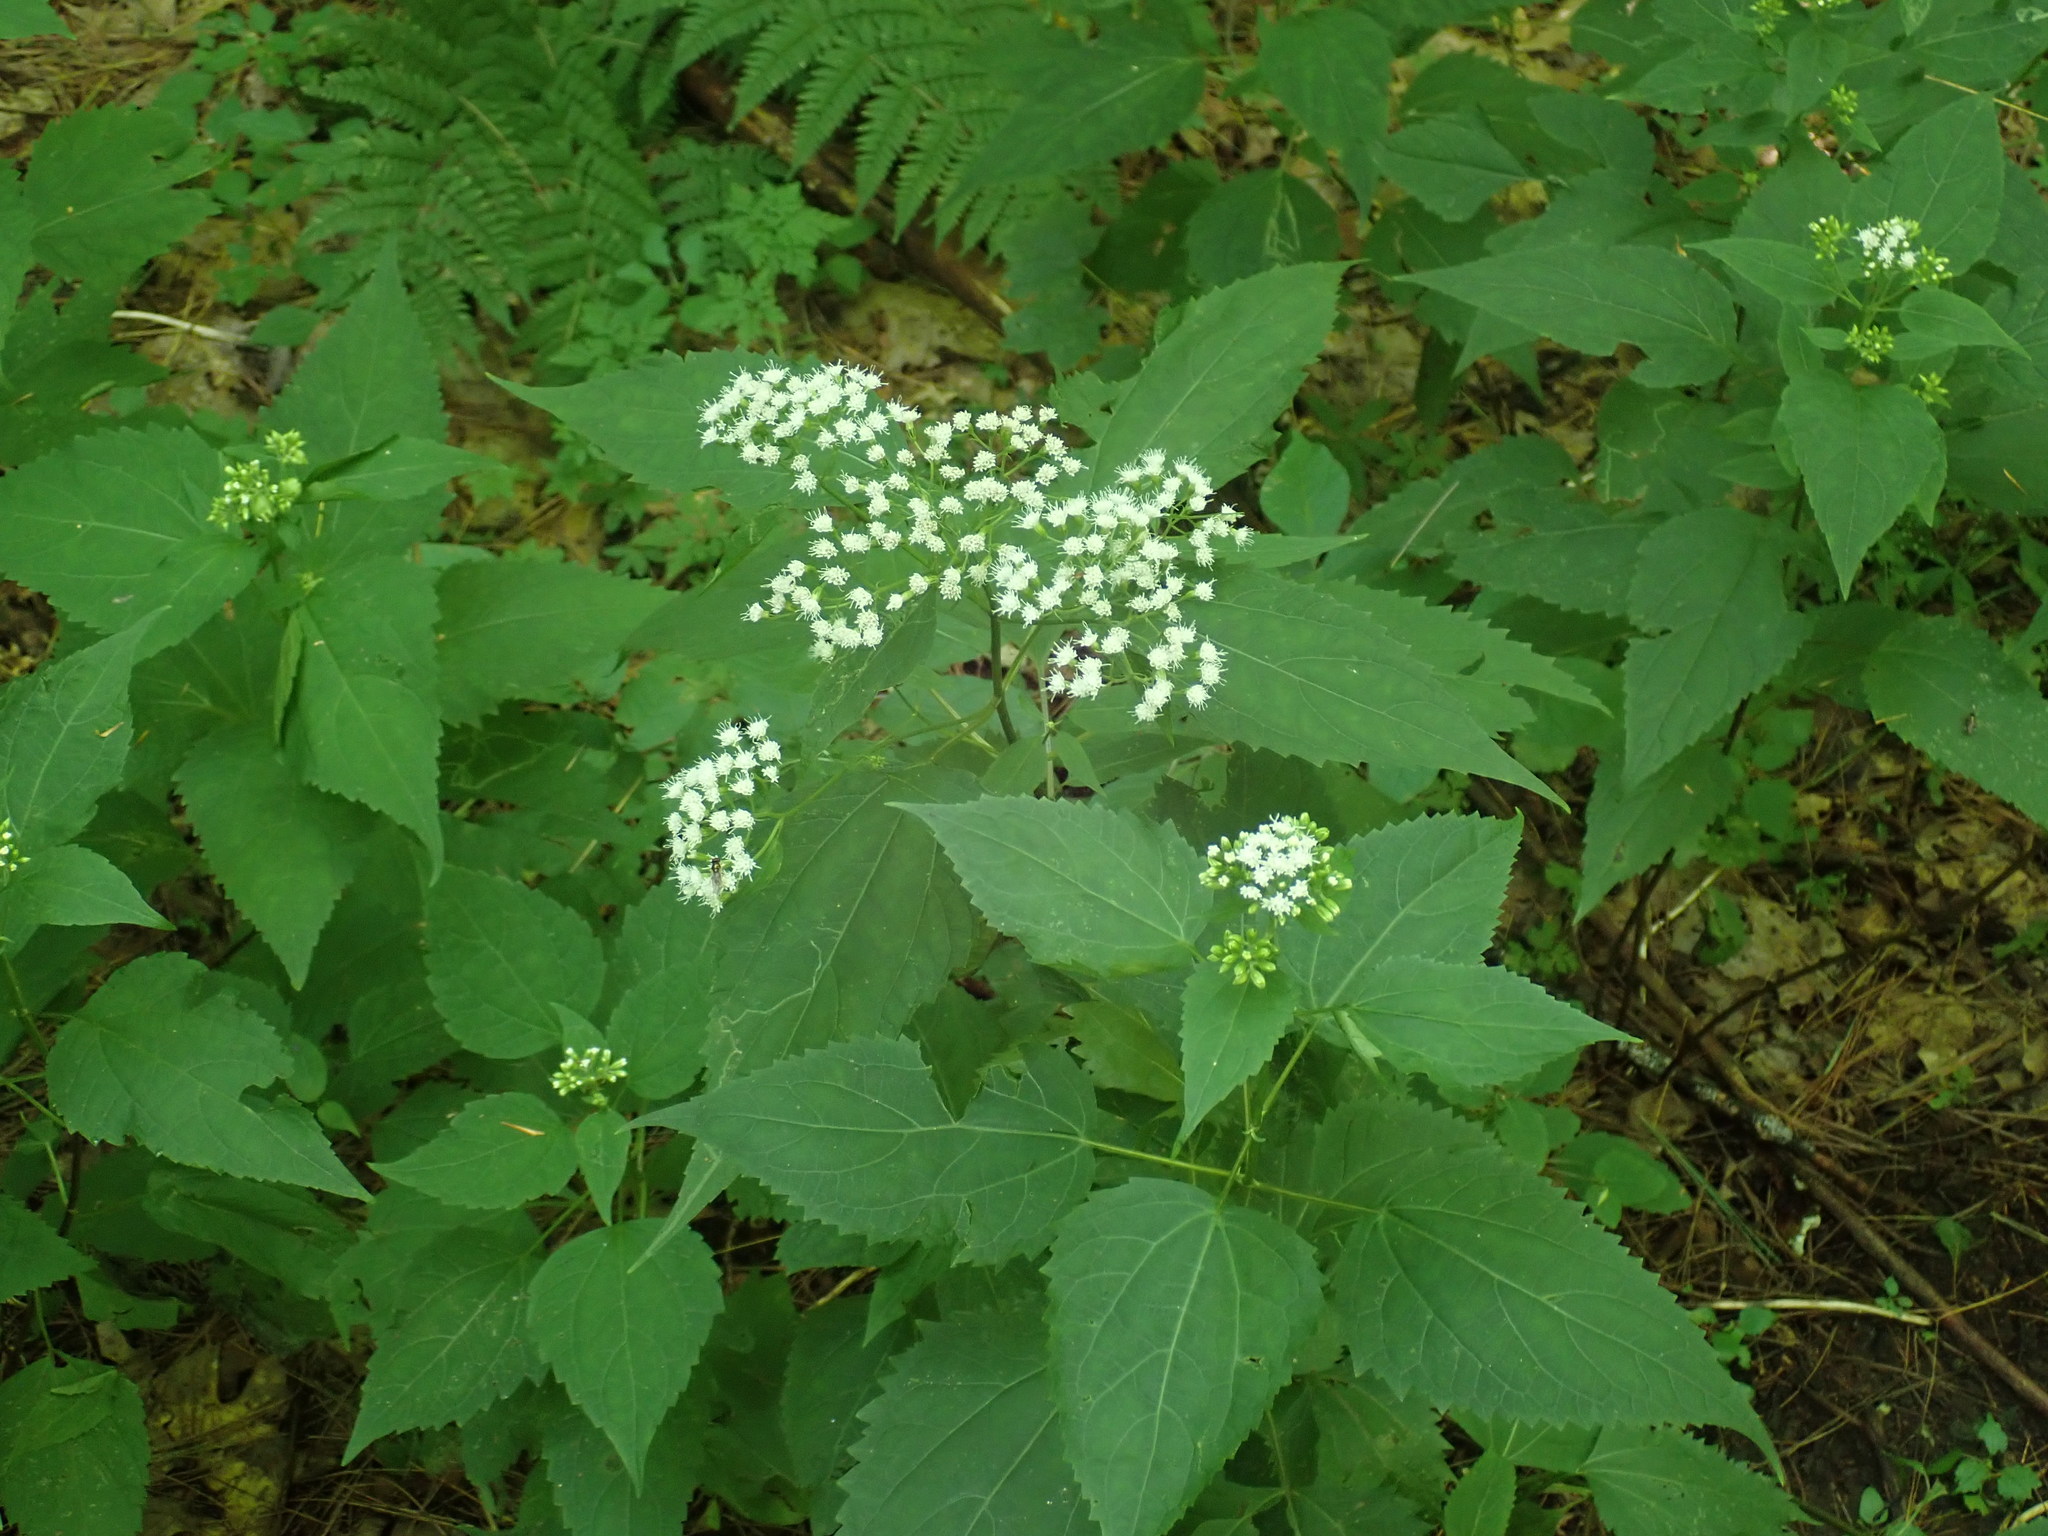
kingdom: Plantae
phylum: Tracheophyta
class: Magnoliopsida
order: Asterales
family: Asteraceae
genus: Ageratina
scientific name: Ageratina altissima
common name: White snakeroot
